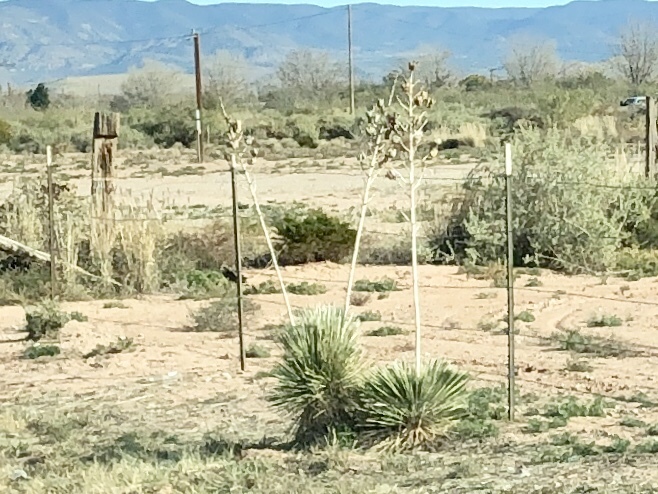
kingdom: Plantae
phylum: Tracheophyta
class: Liliopsida
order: Asparagales
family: Asparagaceae
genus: Yucca
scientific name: Yucca elata
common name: Palmella
